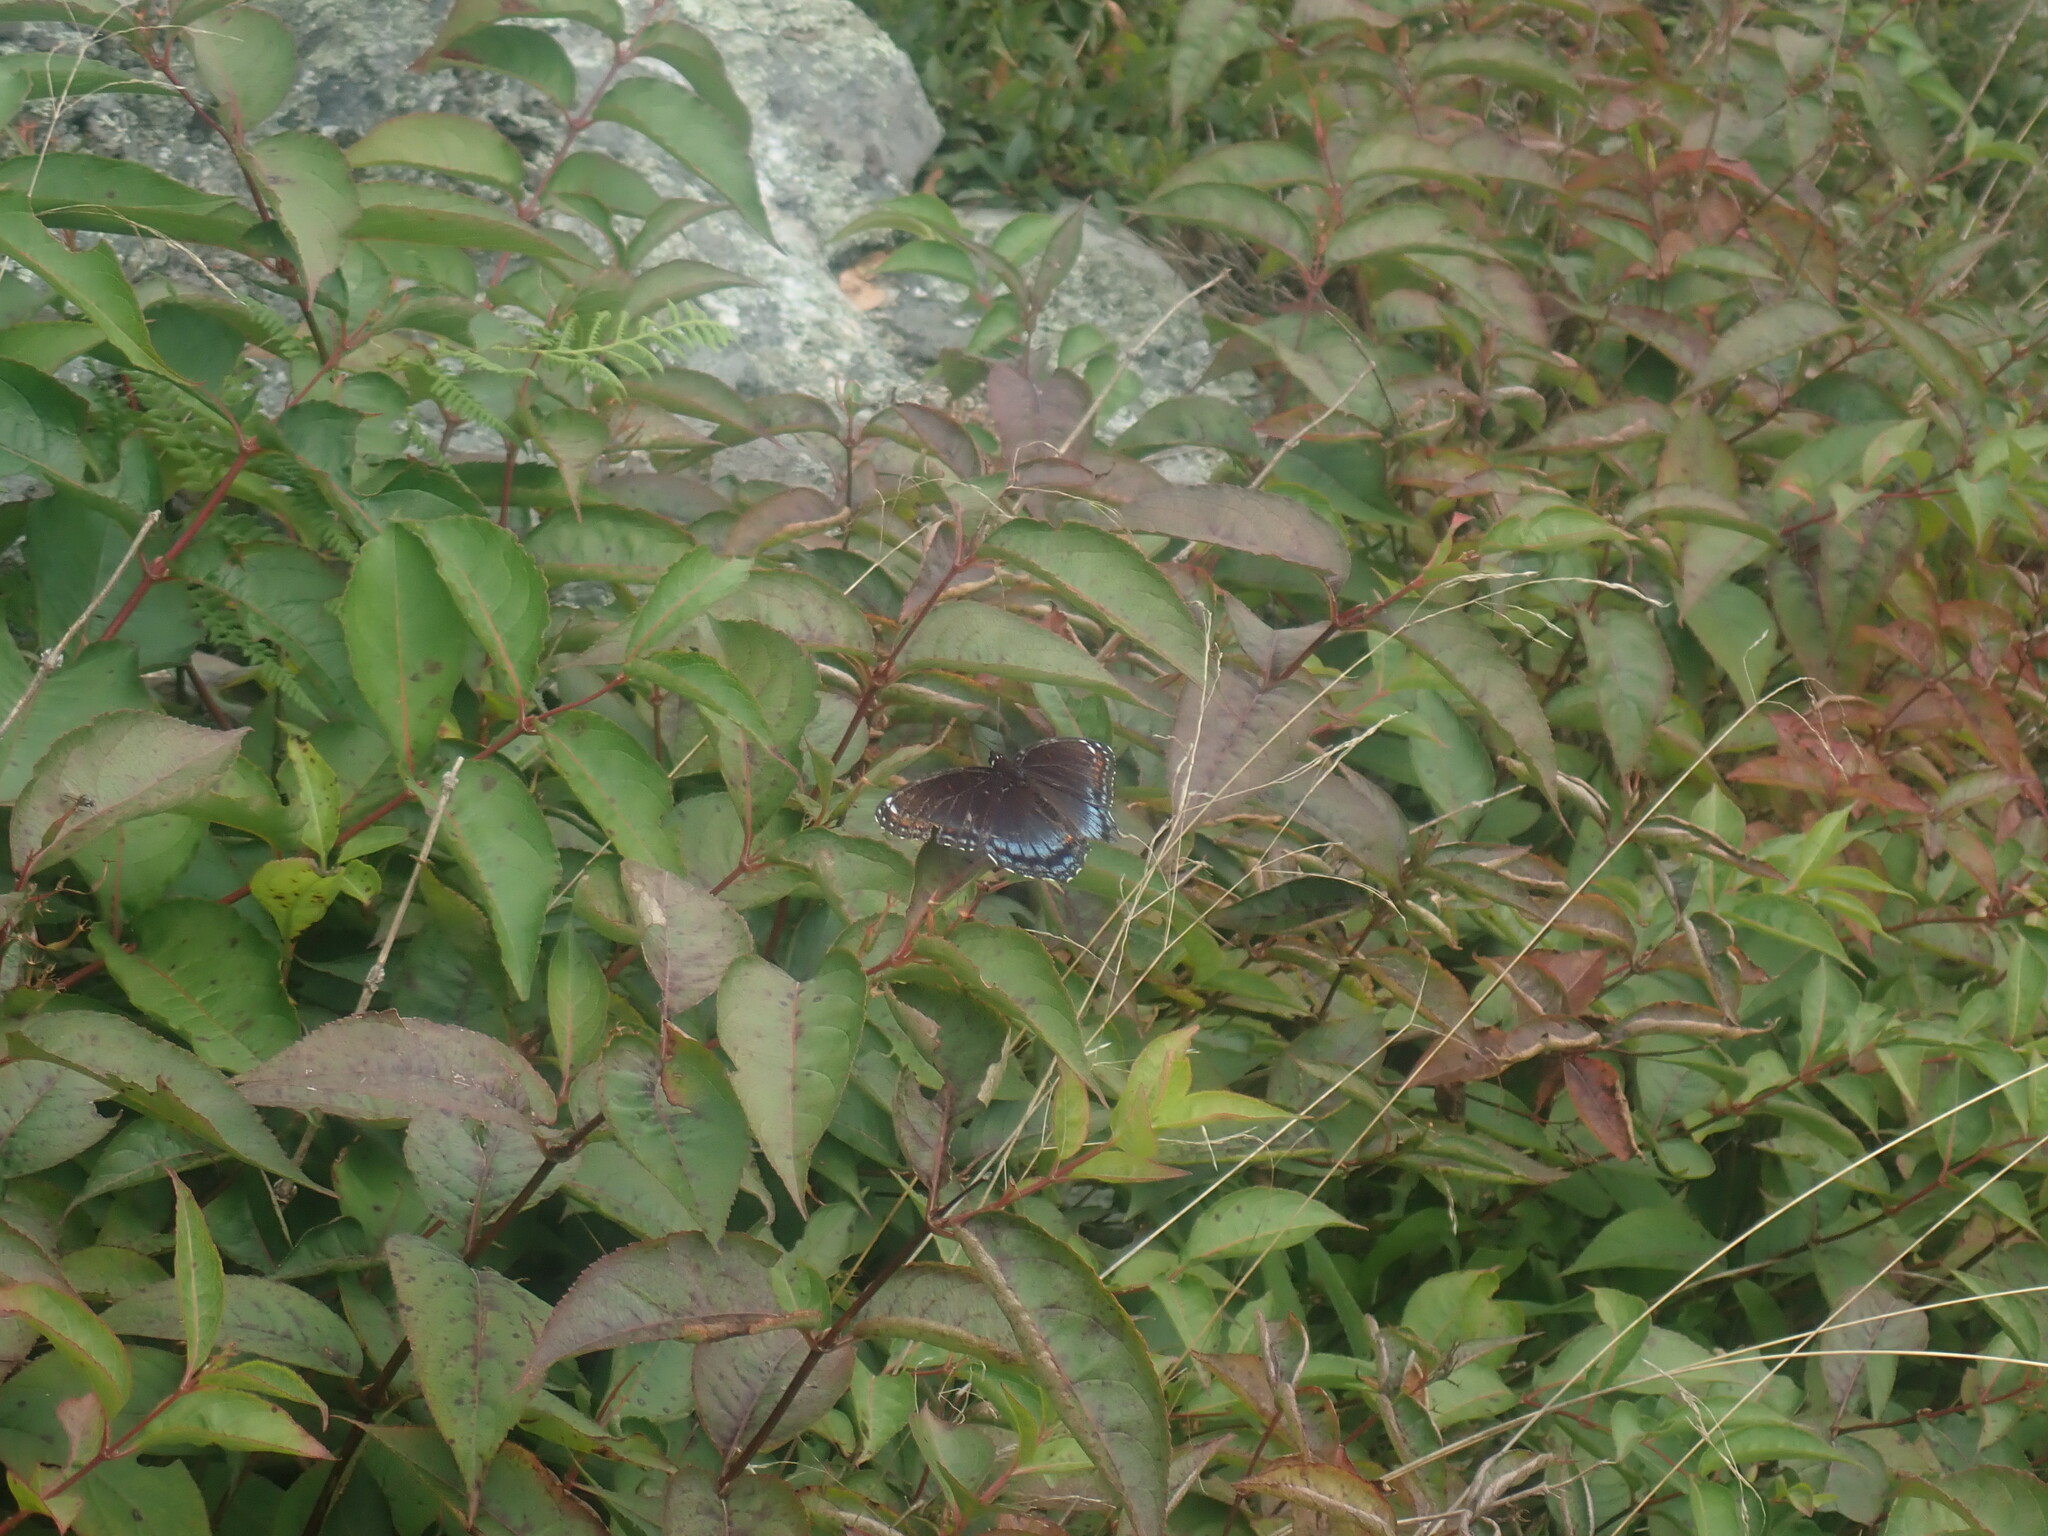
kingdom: Animalia
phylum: Arthropoda
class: Insecta
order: Lepidoptera
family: Nymphalidae
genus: Limenitis
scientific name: Limenitis astyanax
